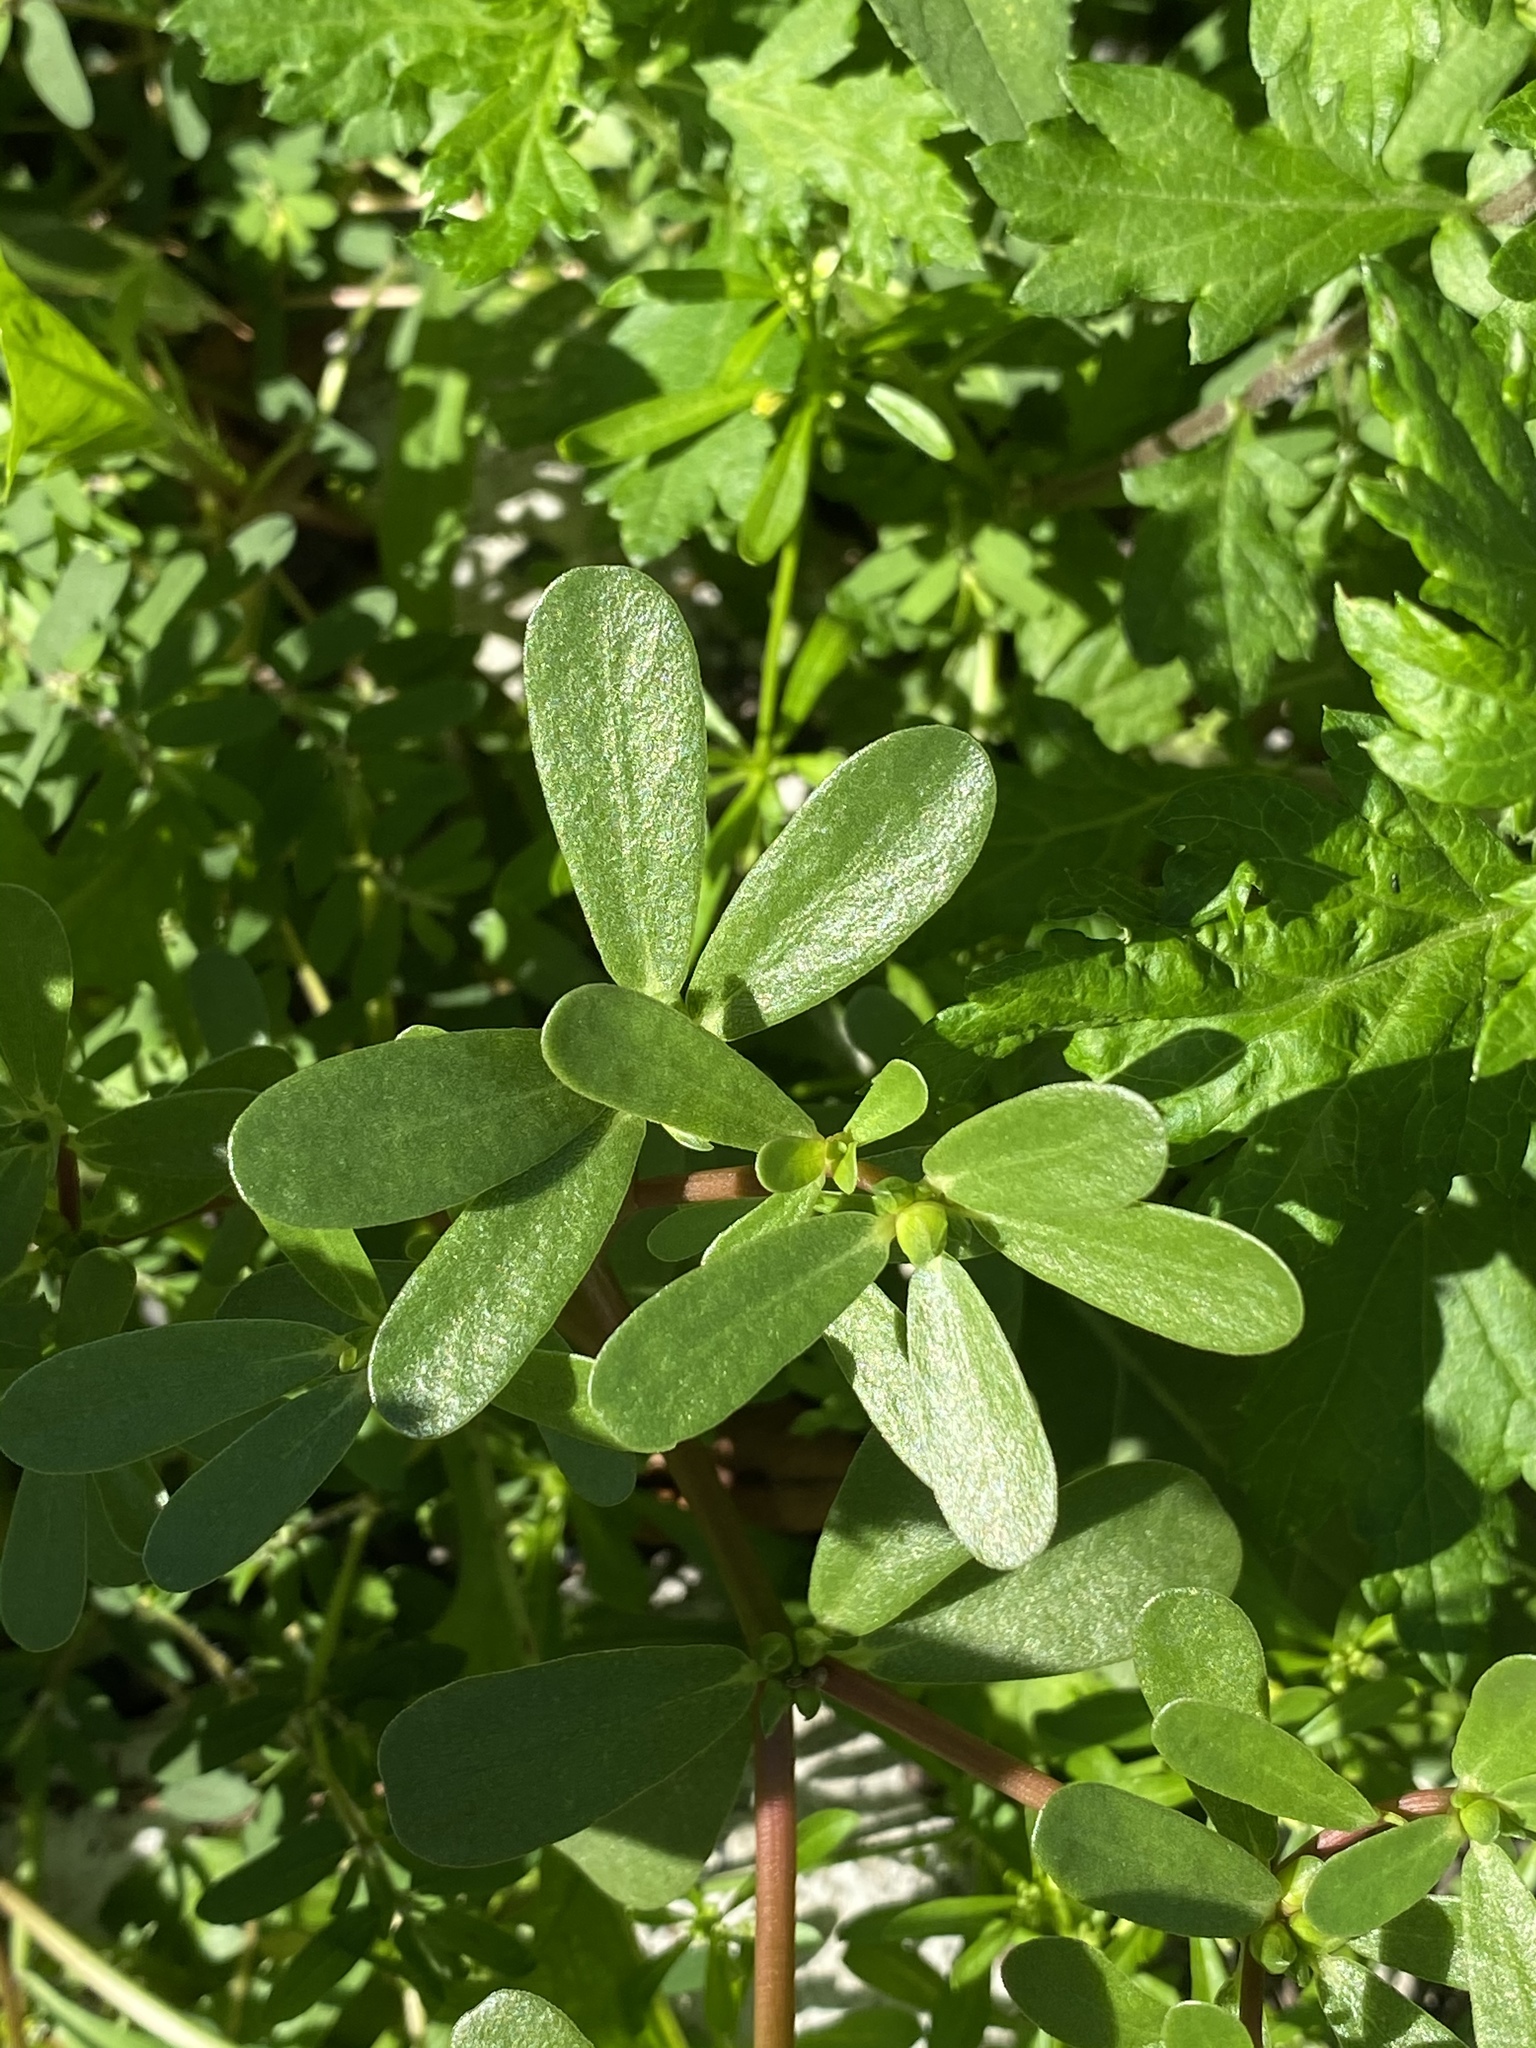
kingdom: Plantae
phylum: Tracheophyta
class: Magnoliopsida
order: Caryophyllales
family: Portulacaceae
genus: Portulaca
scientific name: Portulaca oleracea
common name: Common purslane
